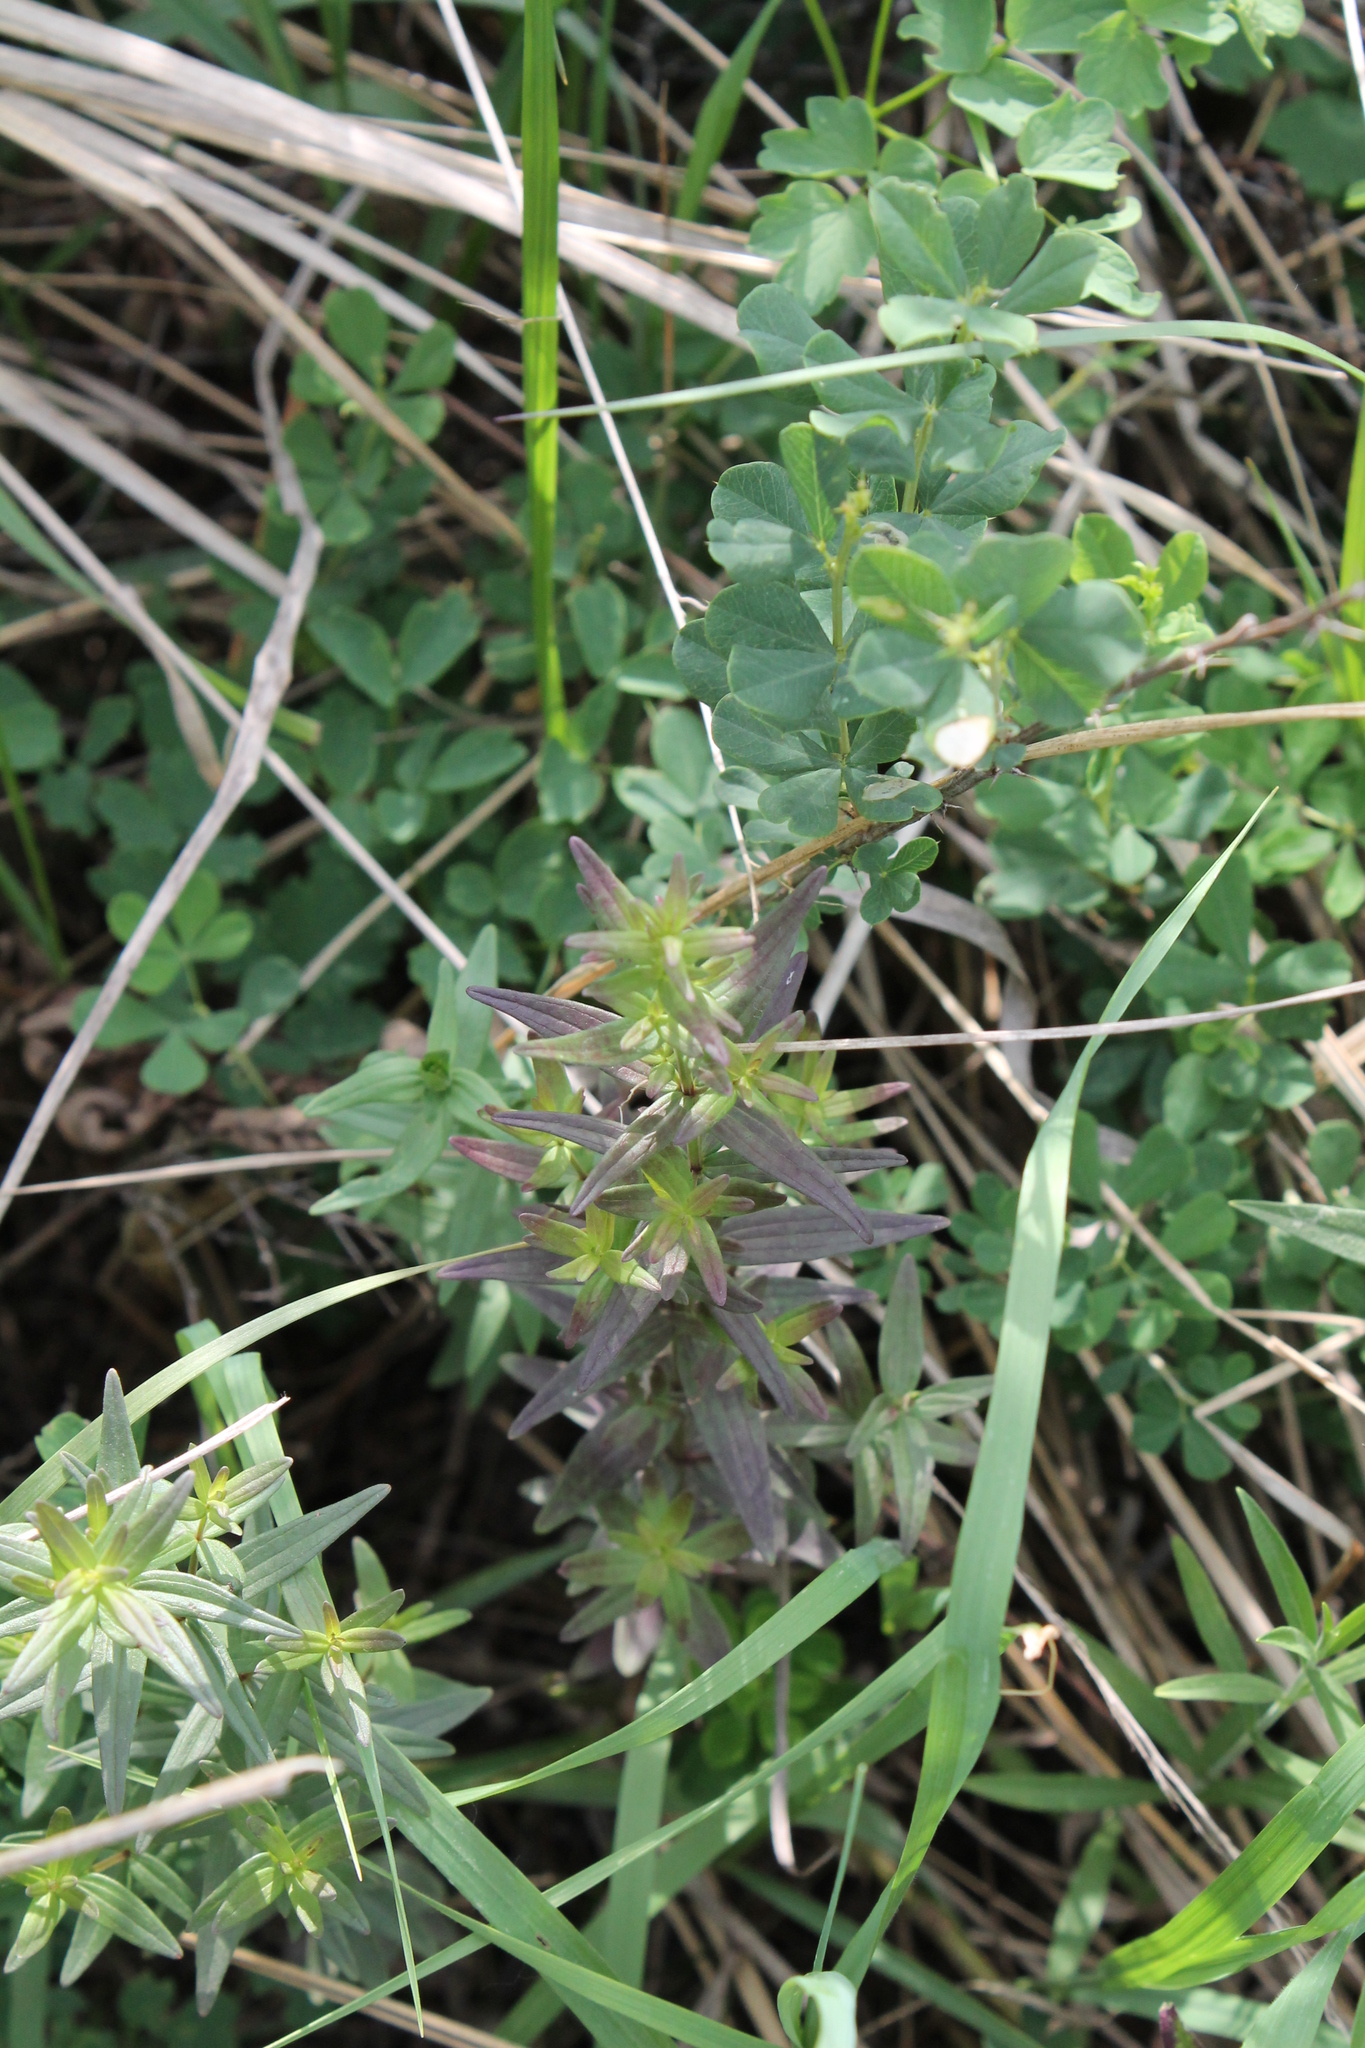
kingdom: Plantae
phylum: Tracheophyta
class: Magnoliopsida
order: Gentianales
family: Rubiaceae
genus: Galium
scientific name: Galium boreale
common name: Northern bedstraw
